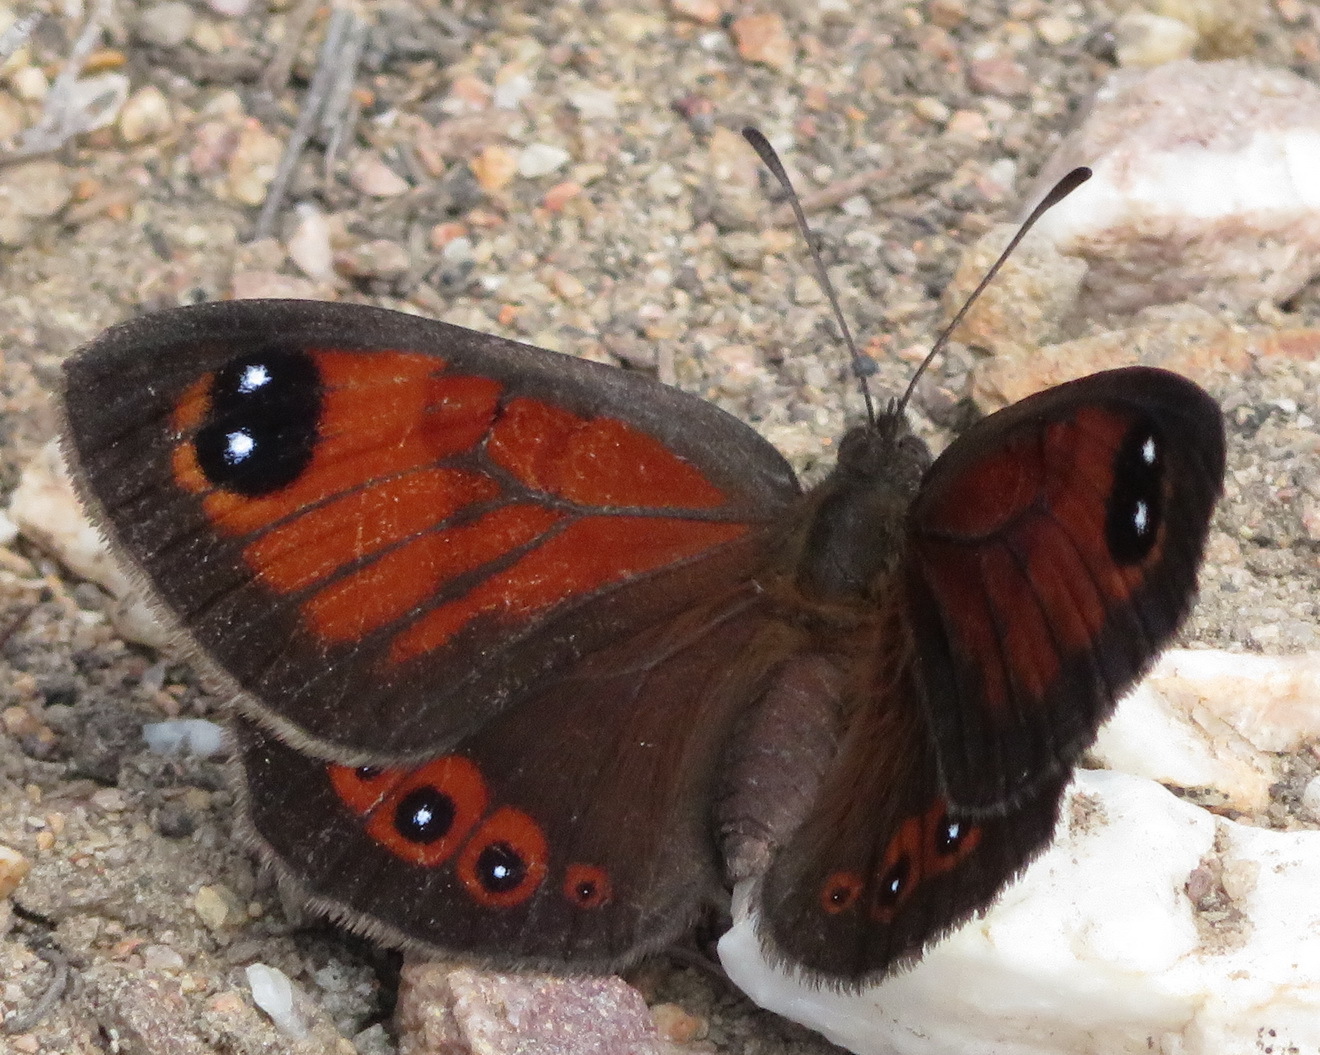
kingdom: Animalia
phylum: Arthropoda
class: Insecta
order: Lepidoptera
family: Nymphalidae
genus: Tarsocera
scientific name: Tarsocera fulvina
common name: Karoo widow
